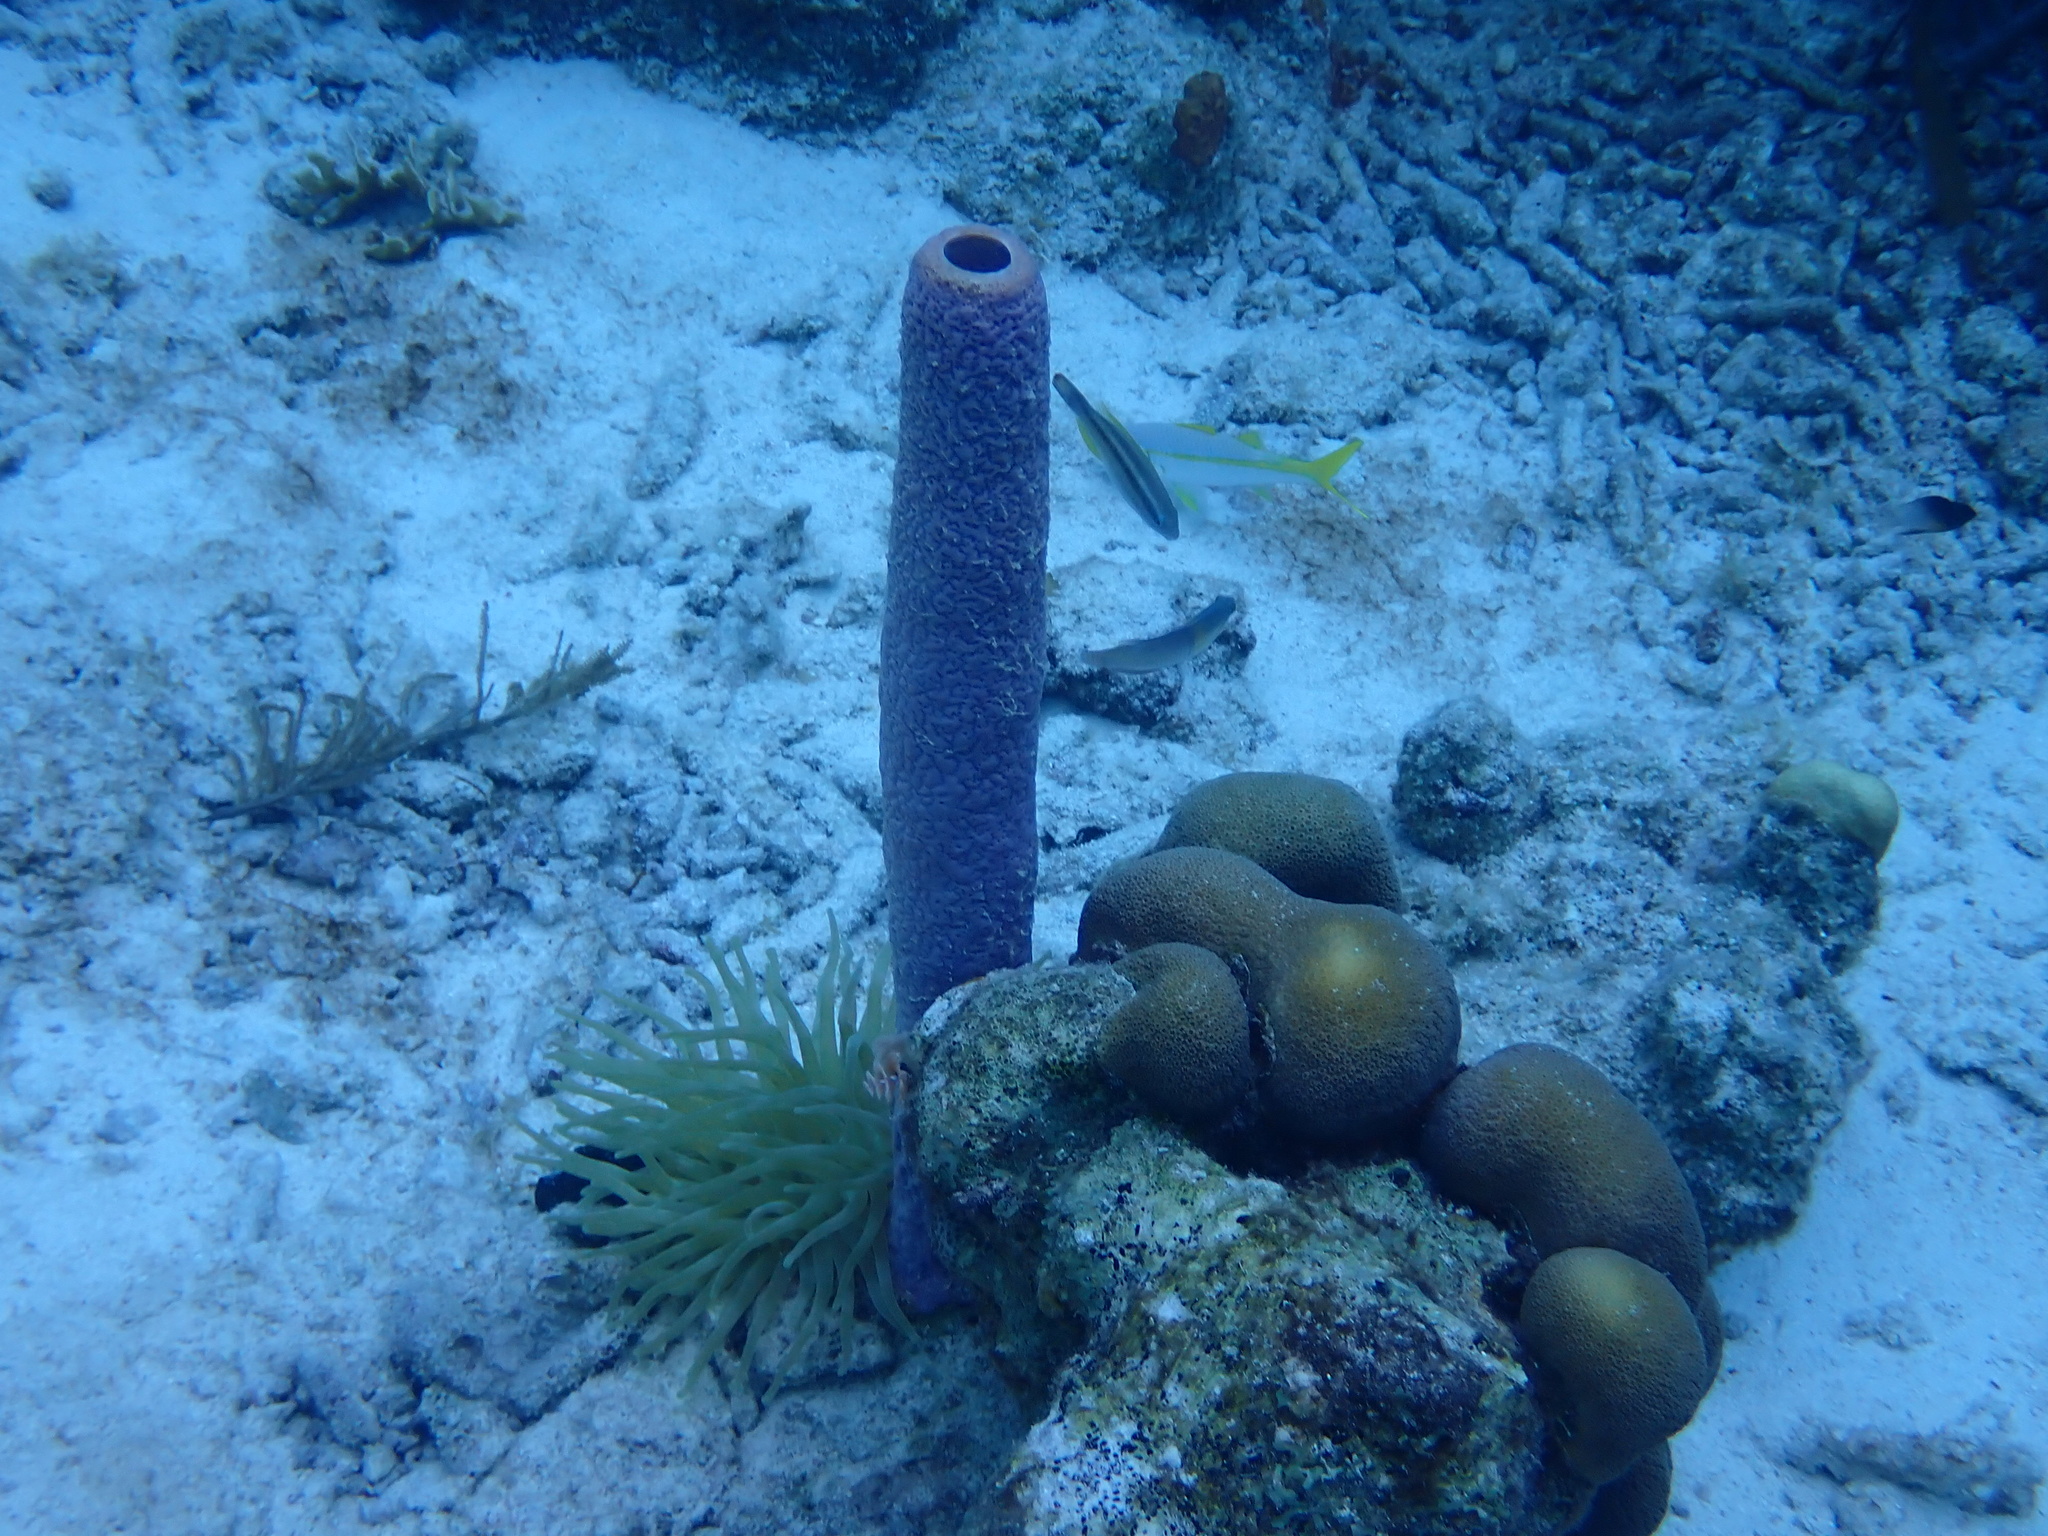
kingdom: Animalia
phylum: Porifera
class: Demospongiae
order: Verongiida
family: Aplysinidae
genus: Aplysina
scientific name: Aplysina archeri
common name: Stove-pipe sponge
